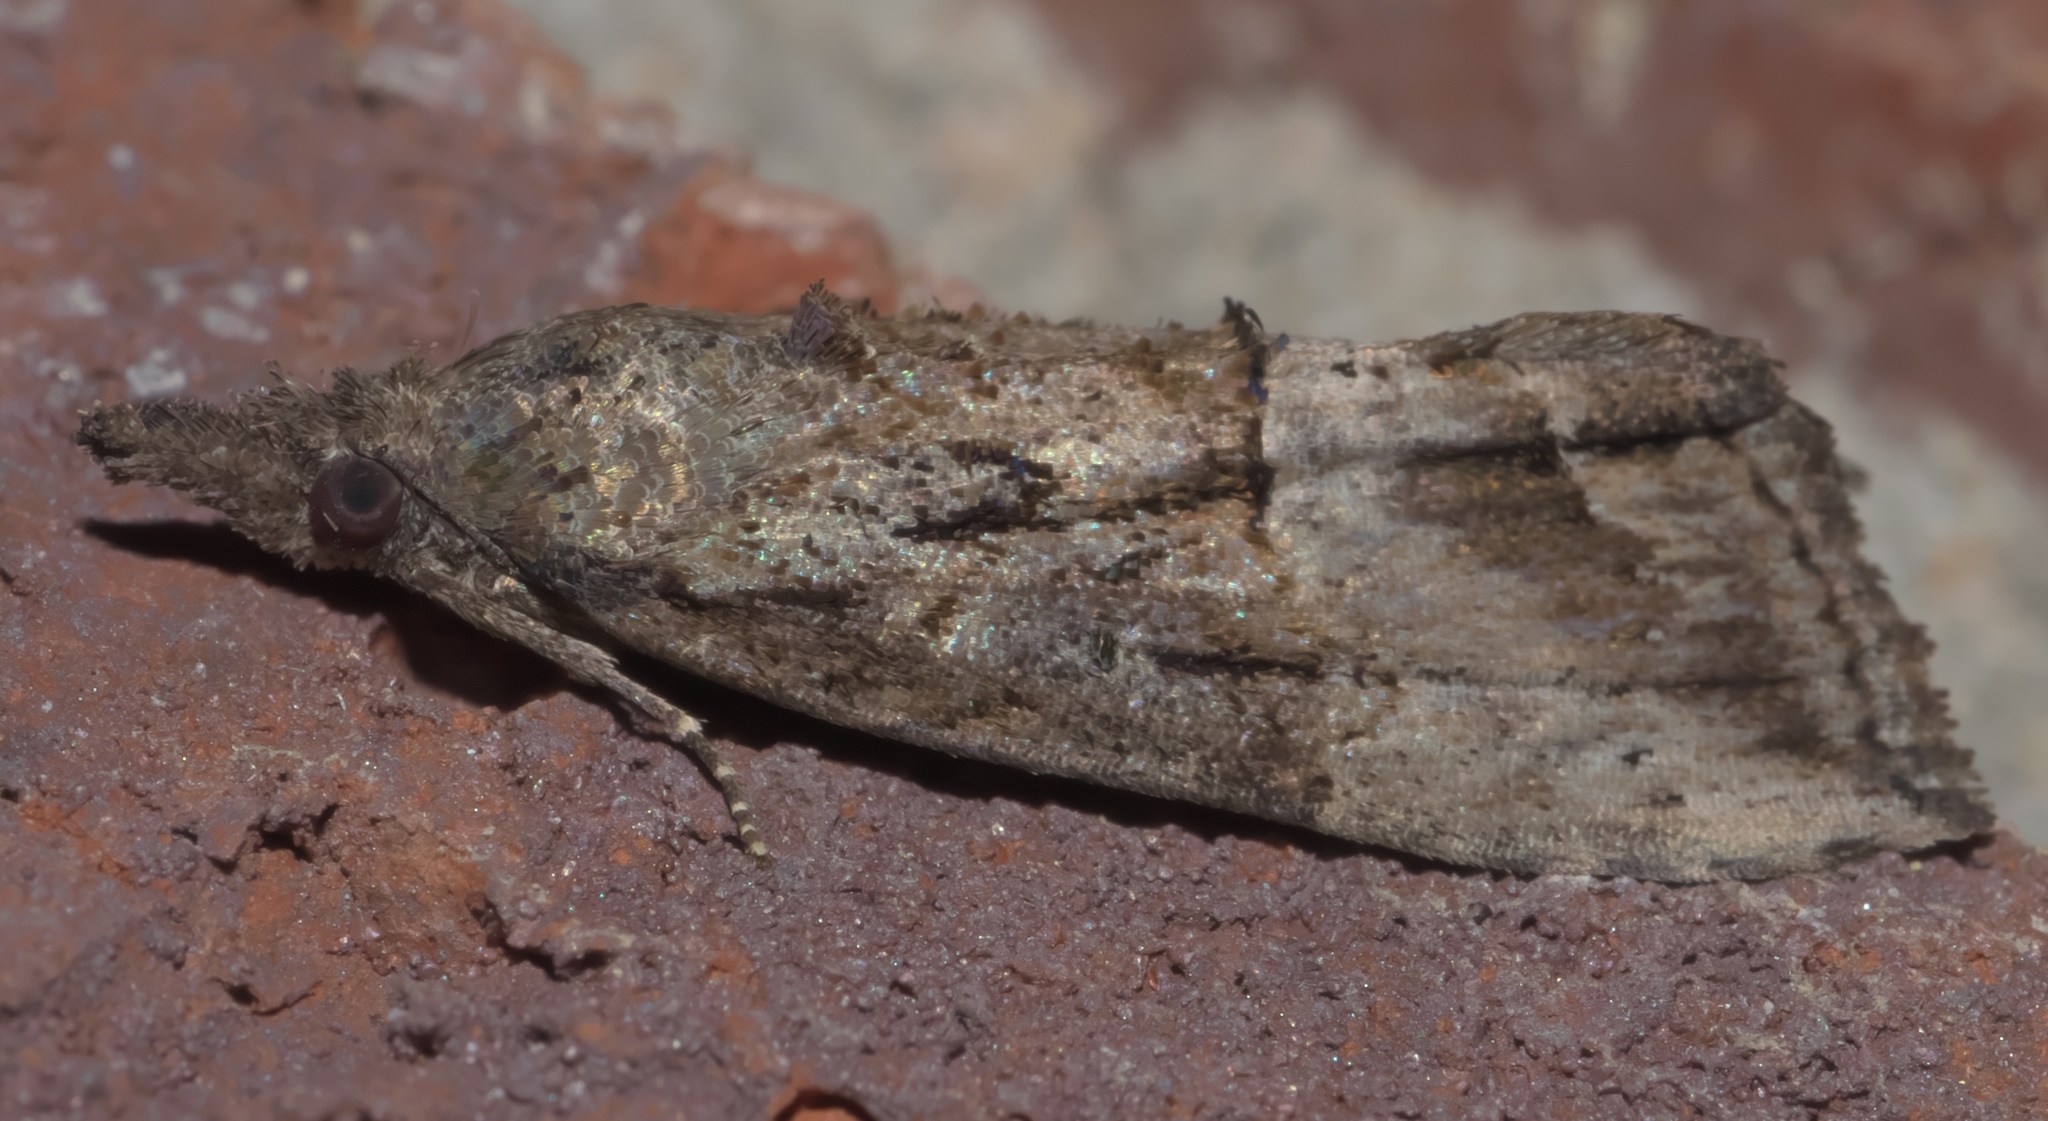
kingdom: Animalia
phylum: Arthropoda
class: Insecta
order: Lepidoptera
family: Erebidae
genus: Hypena
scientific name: Hypena scabra
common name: Green cloverworm
